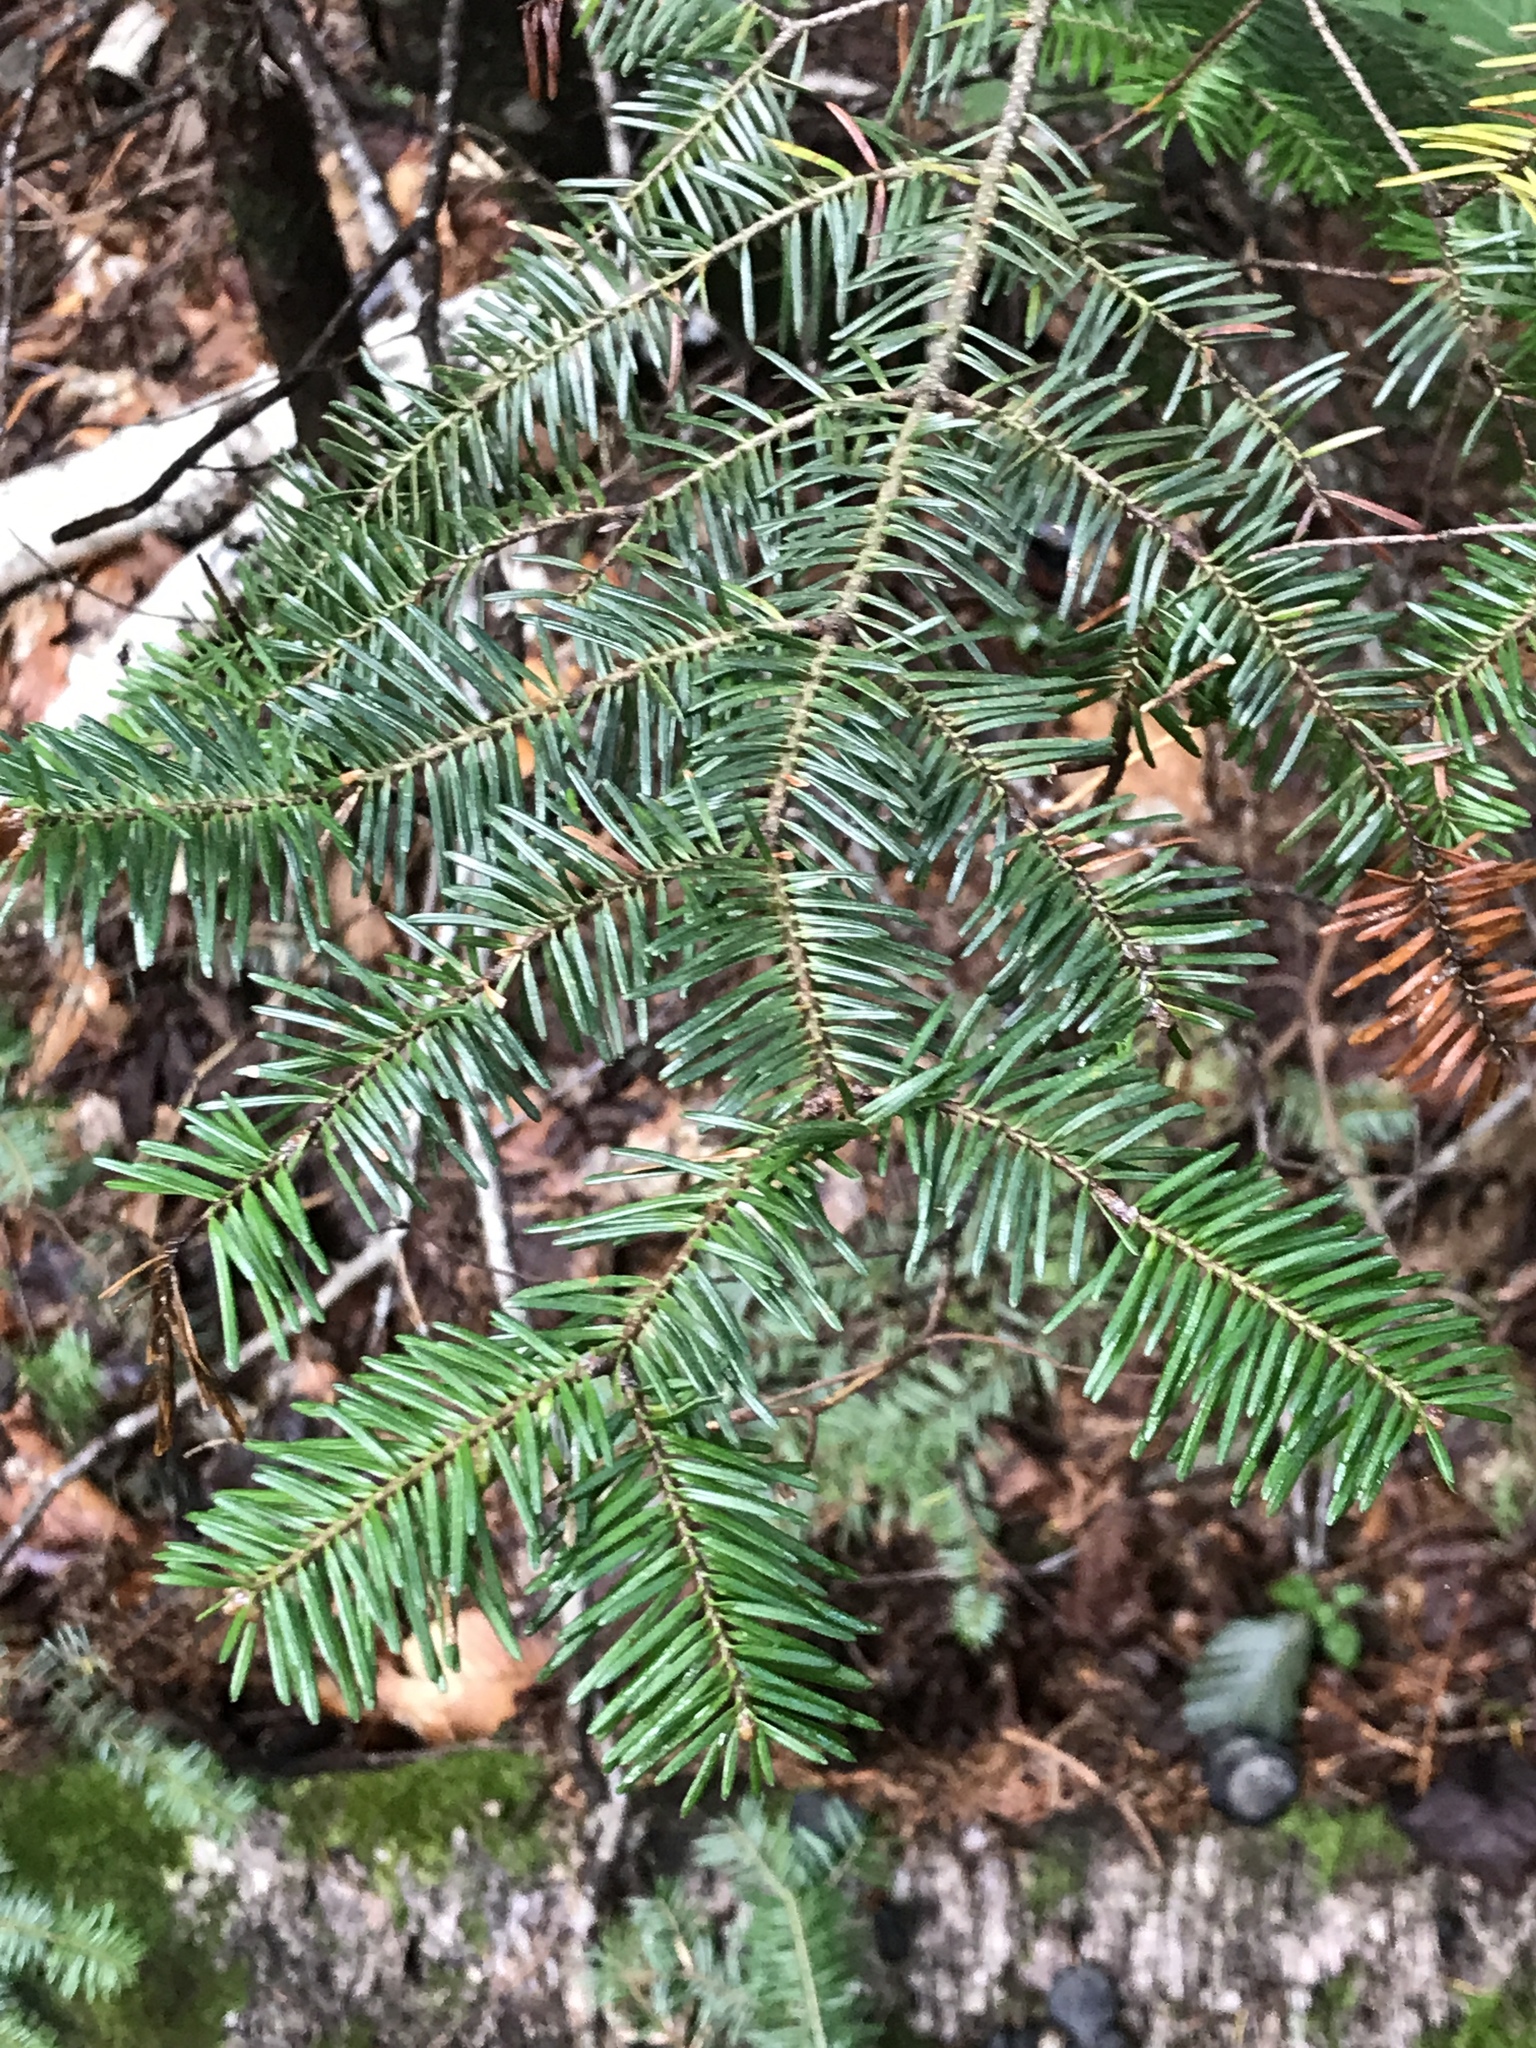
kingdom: Plantae
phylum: Tracheophyta
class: Pinopsida
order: Pinales
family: Pinaceae
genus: Abies
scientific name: Abies balsamea
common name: Balsam fir
